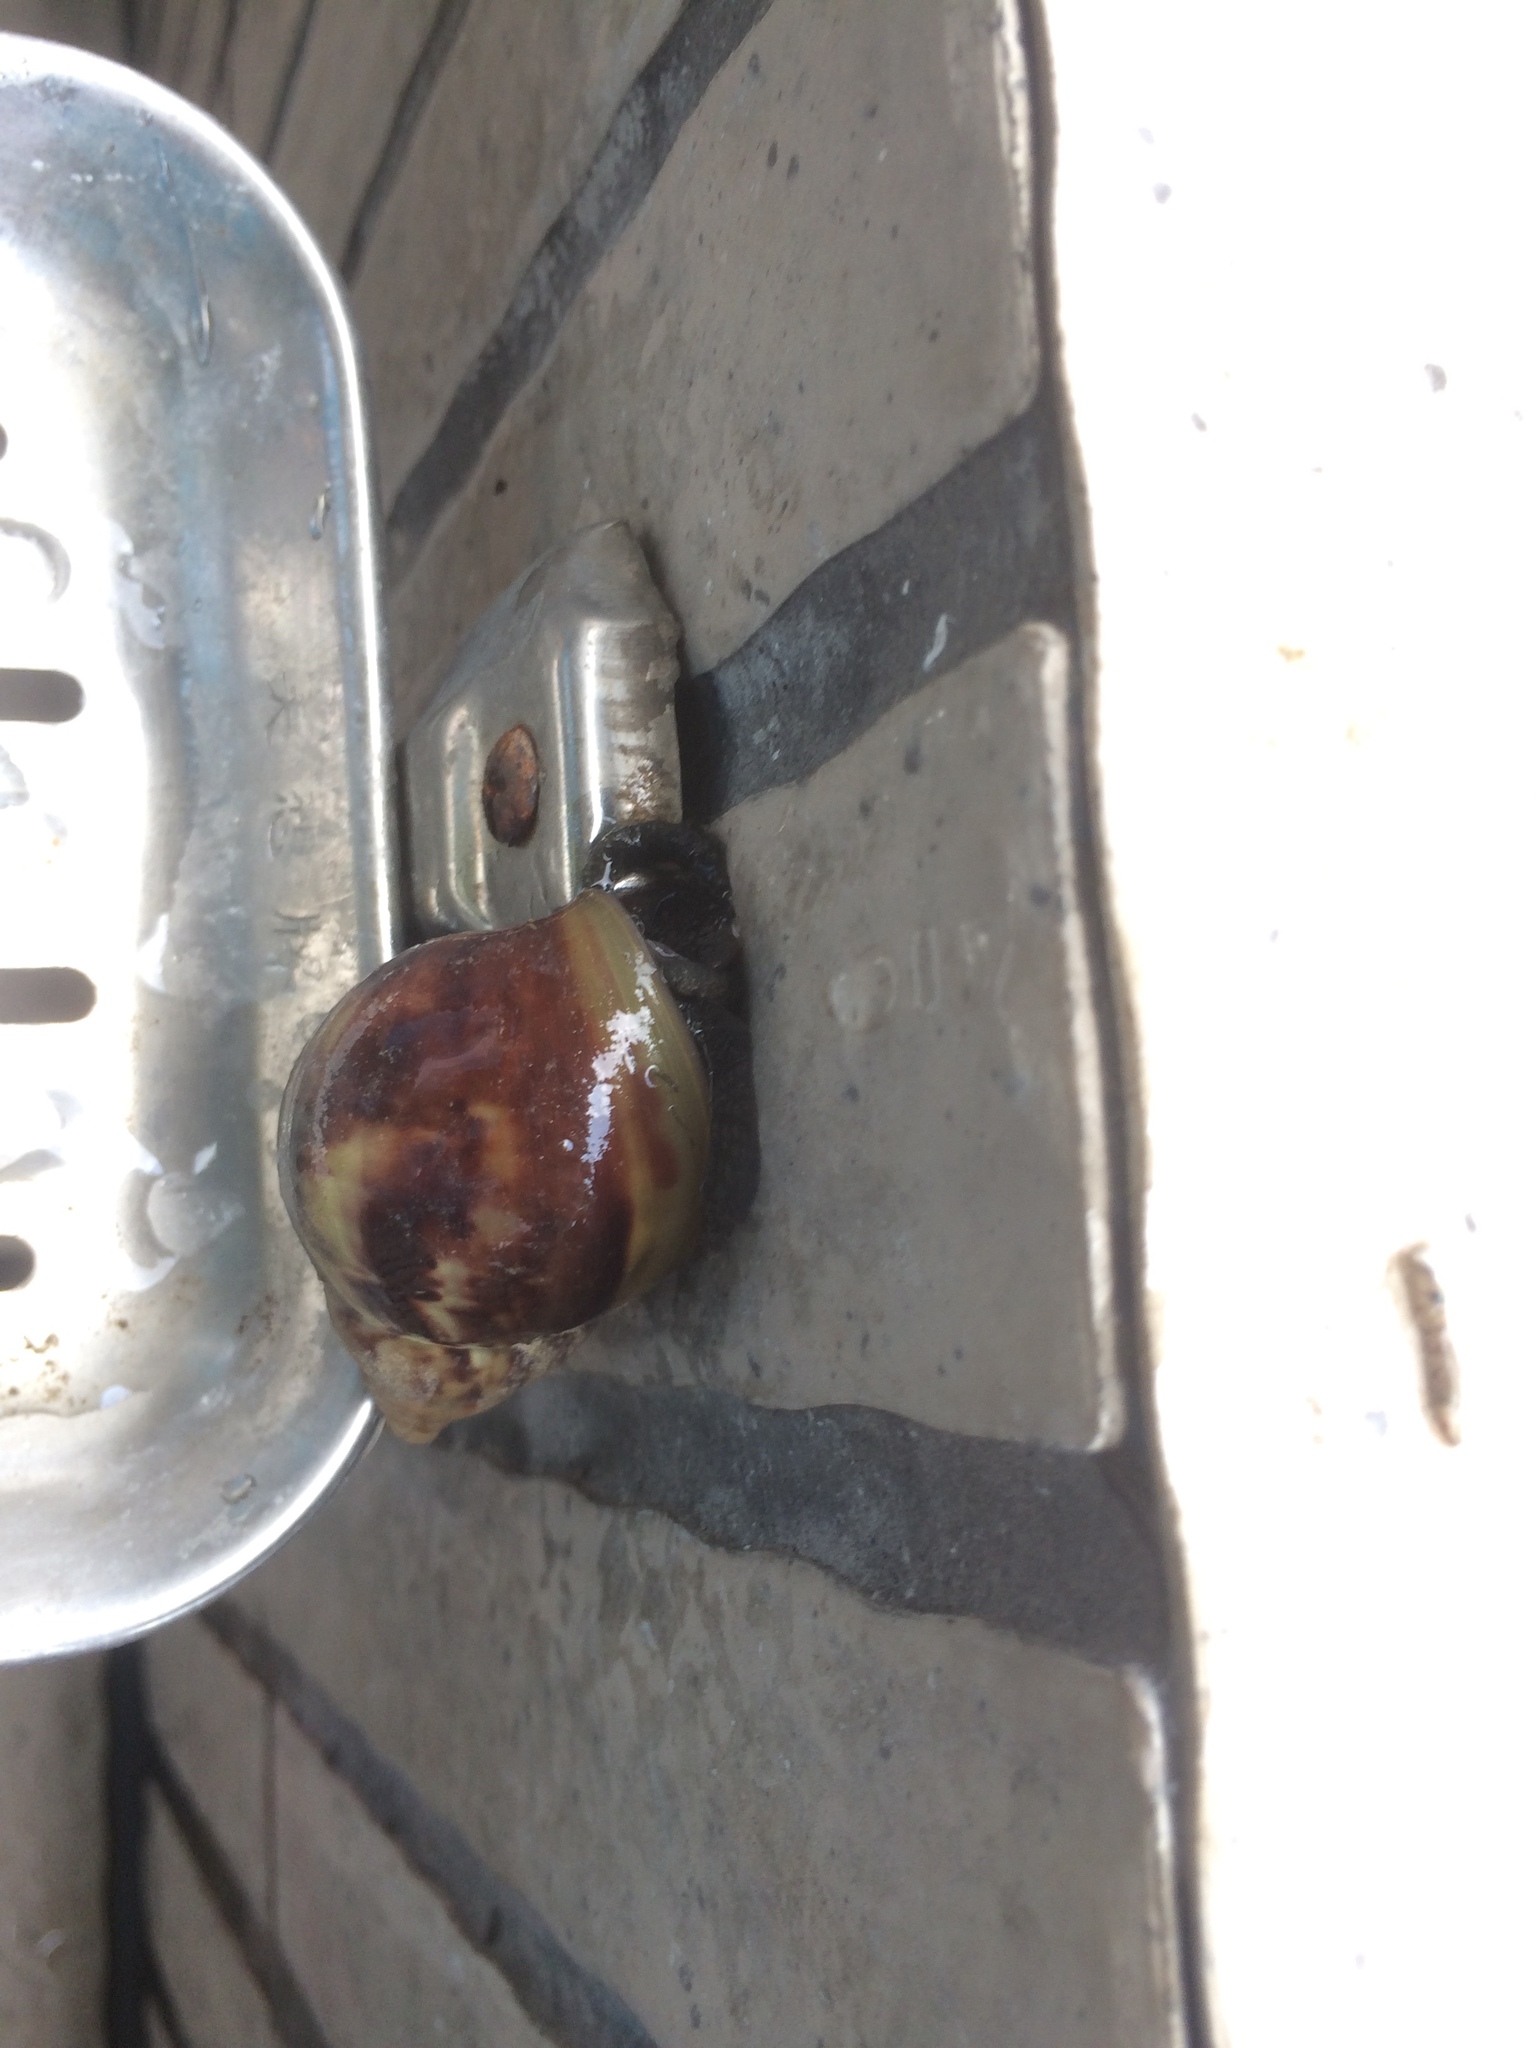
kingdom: Animalia
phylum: Mollusca
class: Gastropoda
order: Stylommatophora
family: Achatinidae
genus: Lissachatina
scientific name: Lissachatina fulica
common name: Giant african snail
